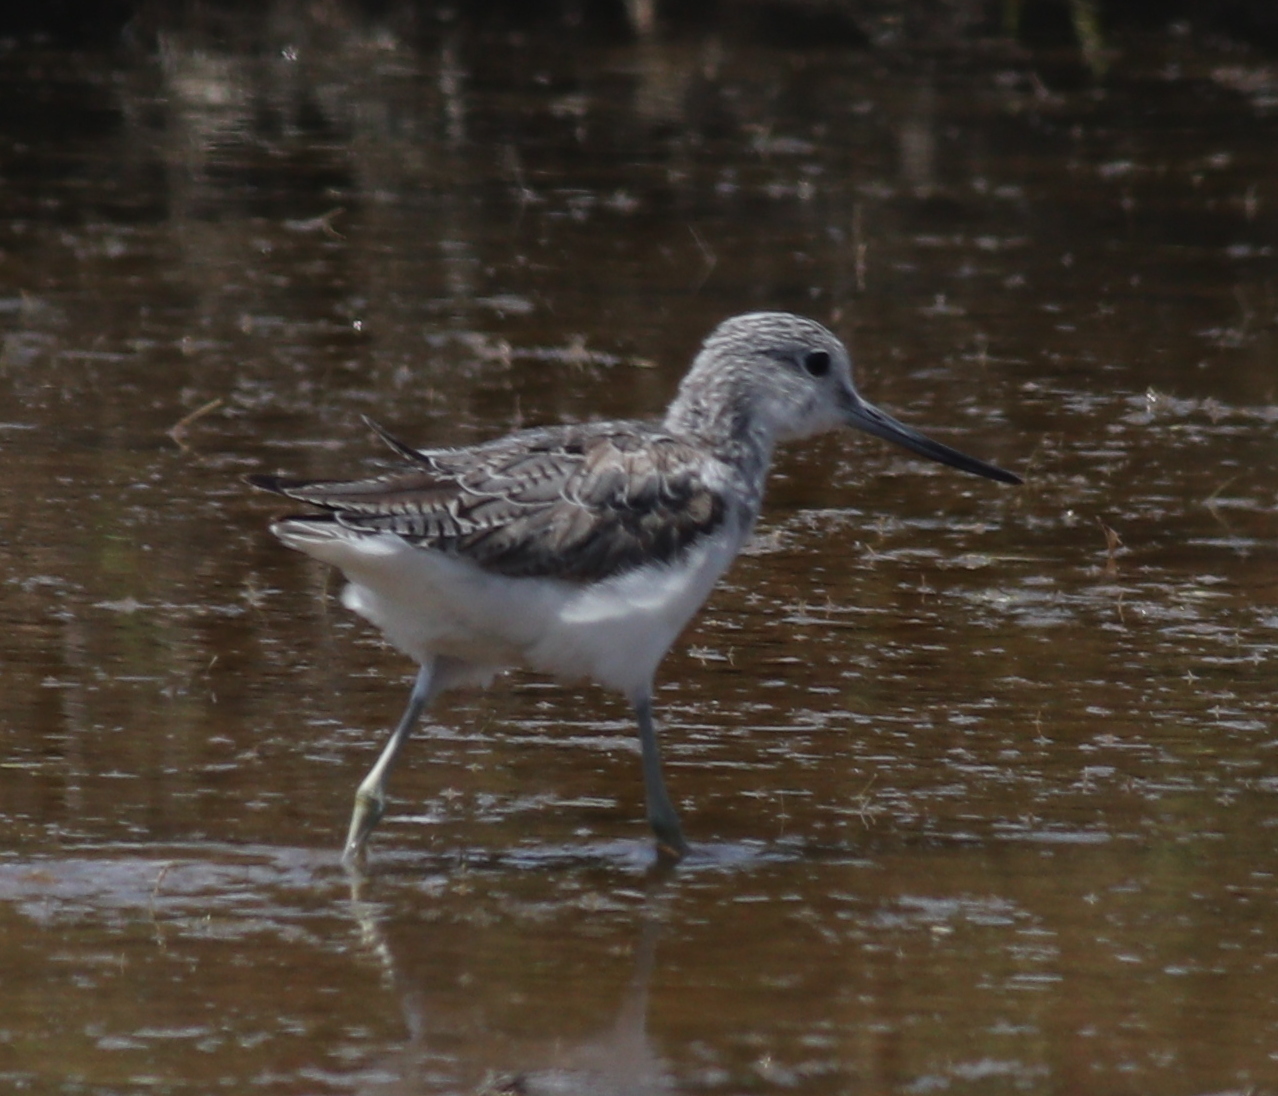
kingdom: Animalia
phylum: Chordata
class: Aves
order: Charadriiformes
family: Scolopacidae
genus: Tringa
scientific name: Tringa nebularia
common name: Common greenshank
